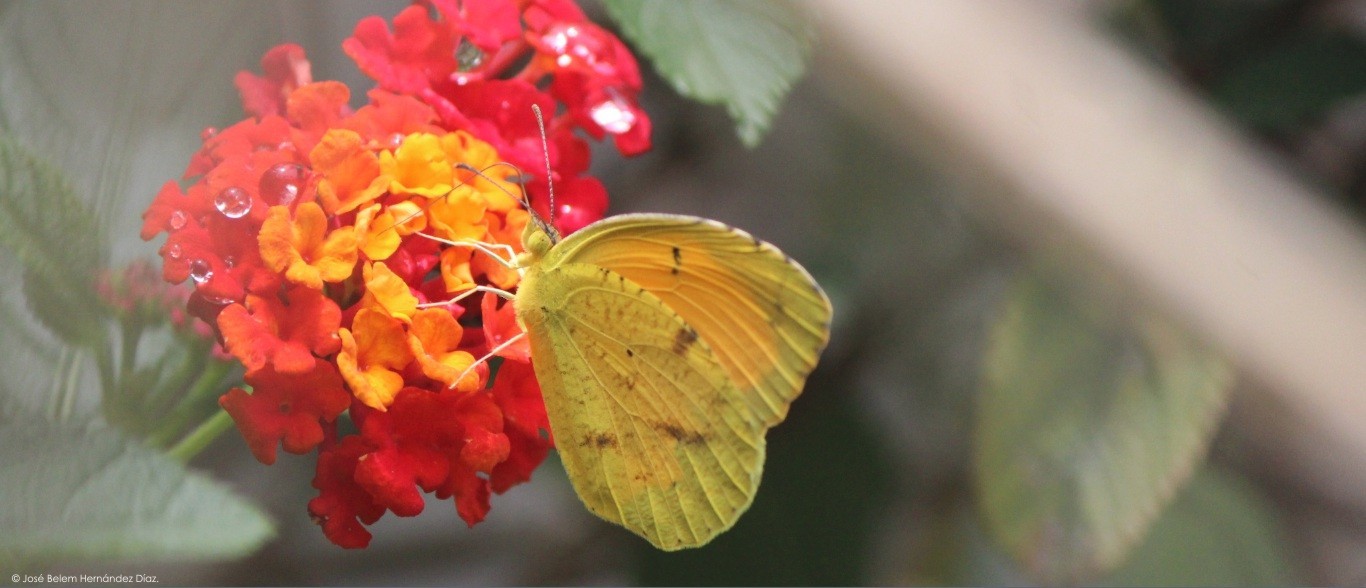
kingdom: Animalia
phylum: Arthropoda
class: Insecta
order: Lepidoptera
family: Pieridae
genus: Abaeis
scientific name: Abaeis nicippe
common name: Sleepy orange
